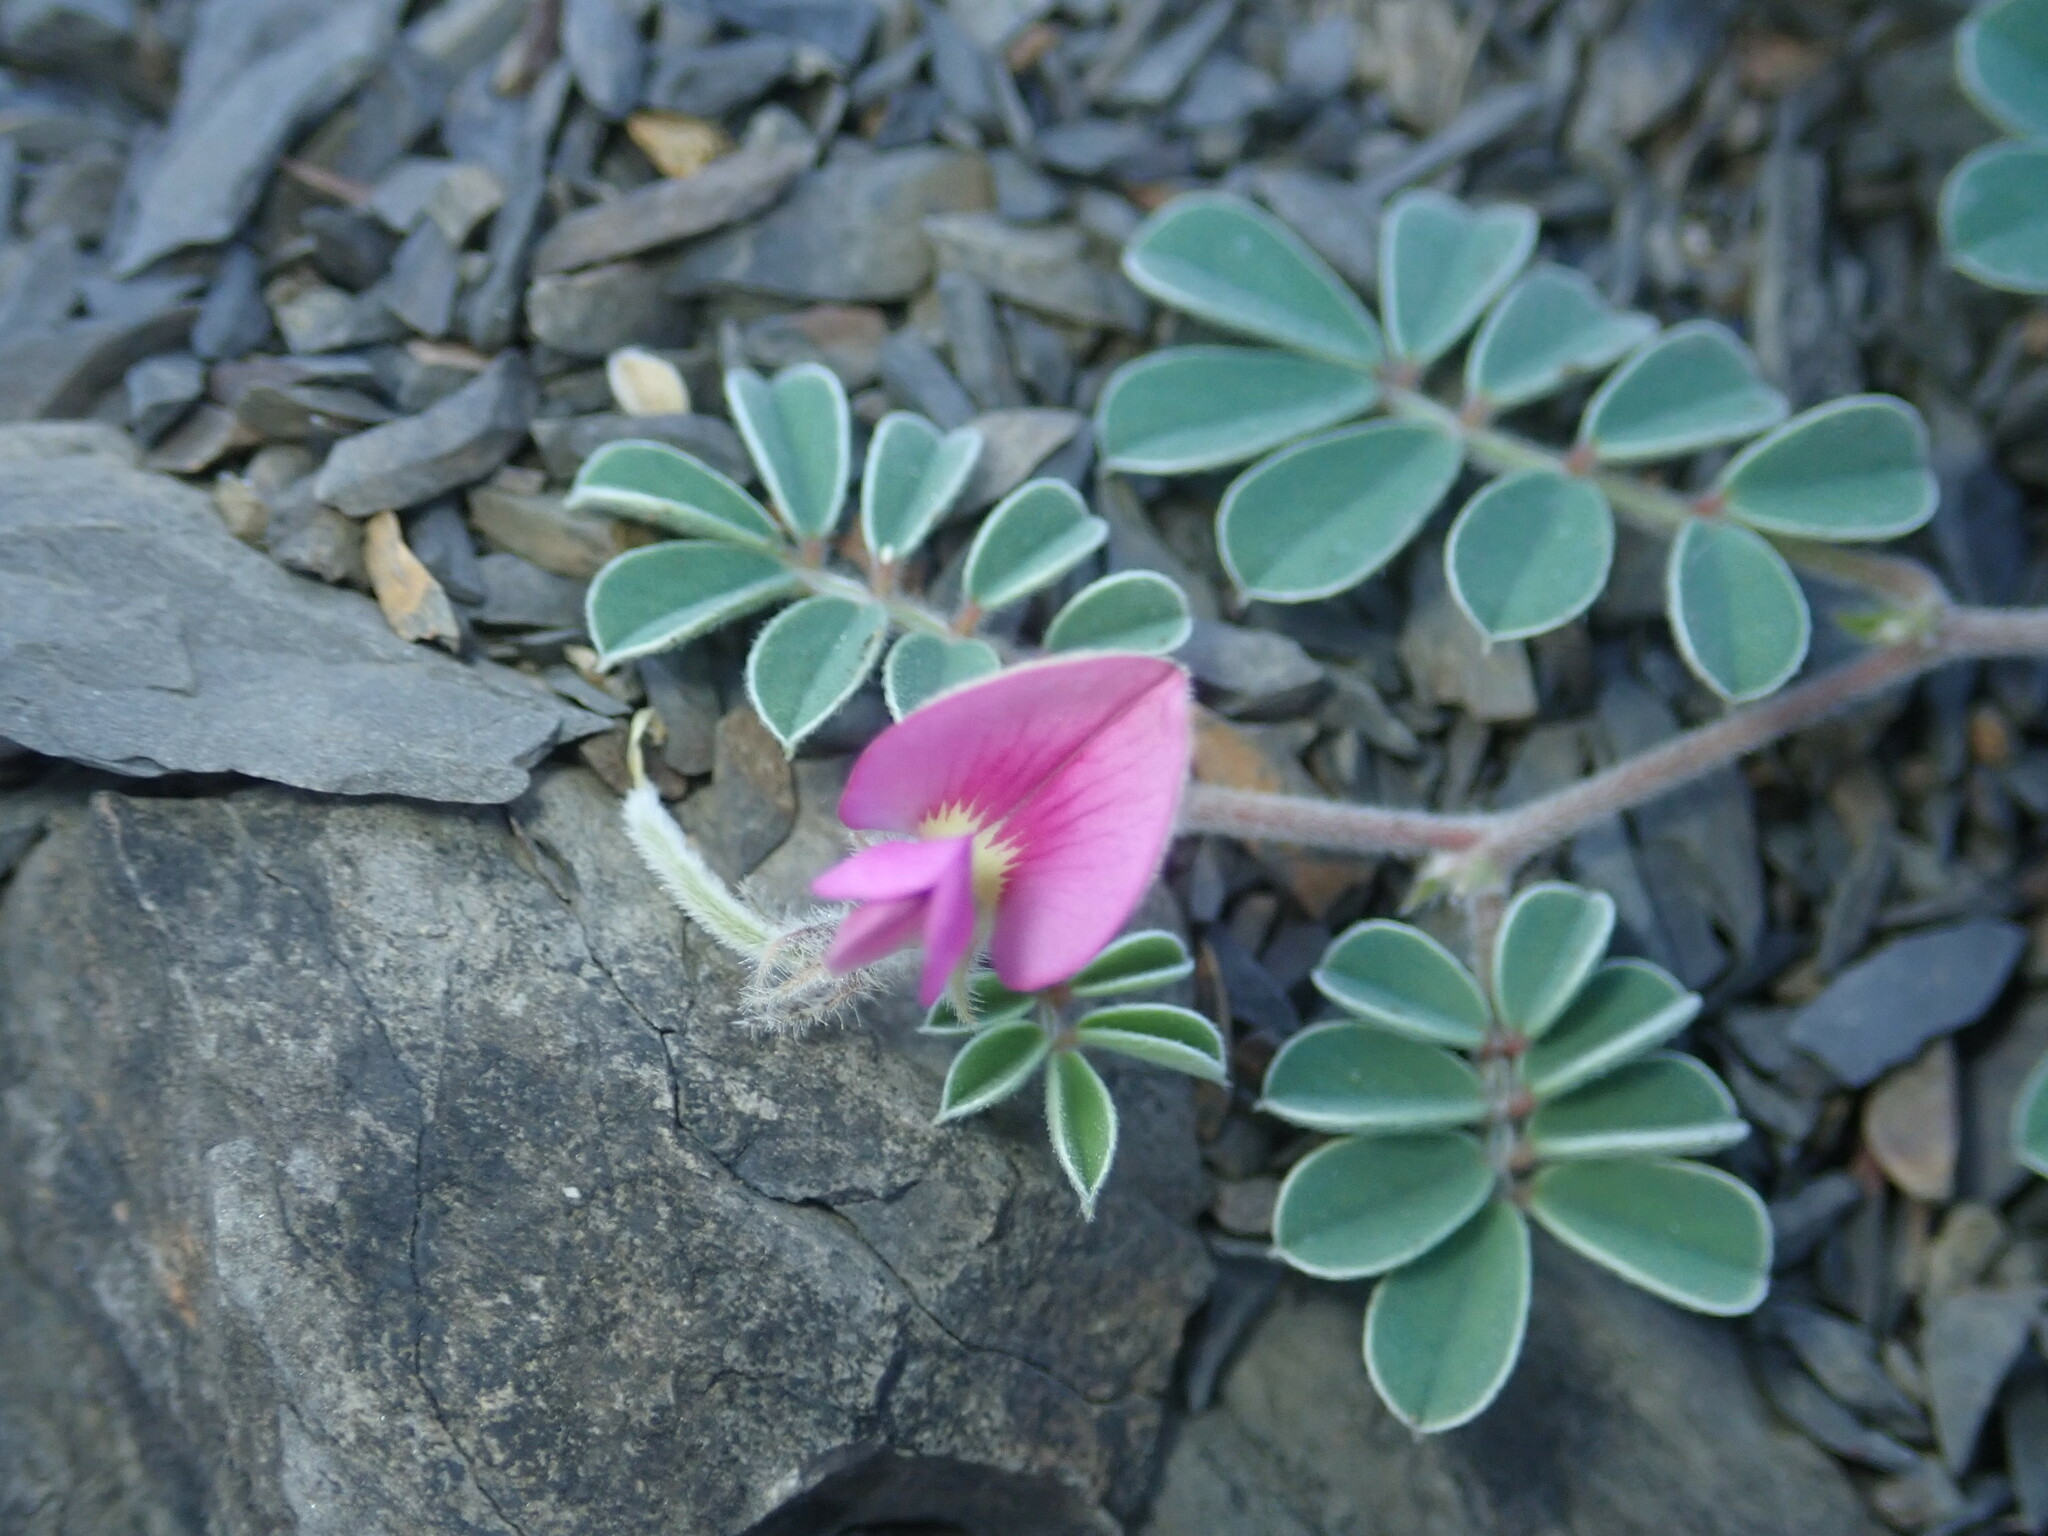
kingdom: Plantae
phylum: Tracheophyta
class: Magnoliopsida
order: Fabales
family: Fabaceae
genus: Tephrosia
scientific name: Tephrosia obovata
